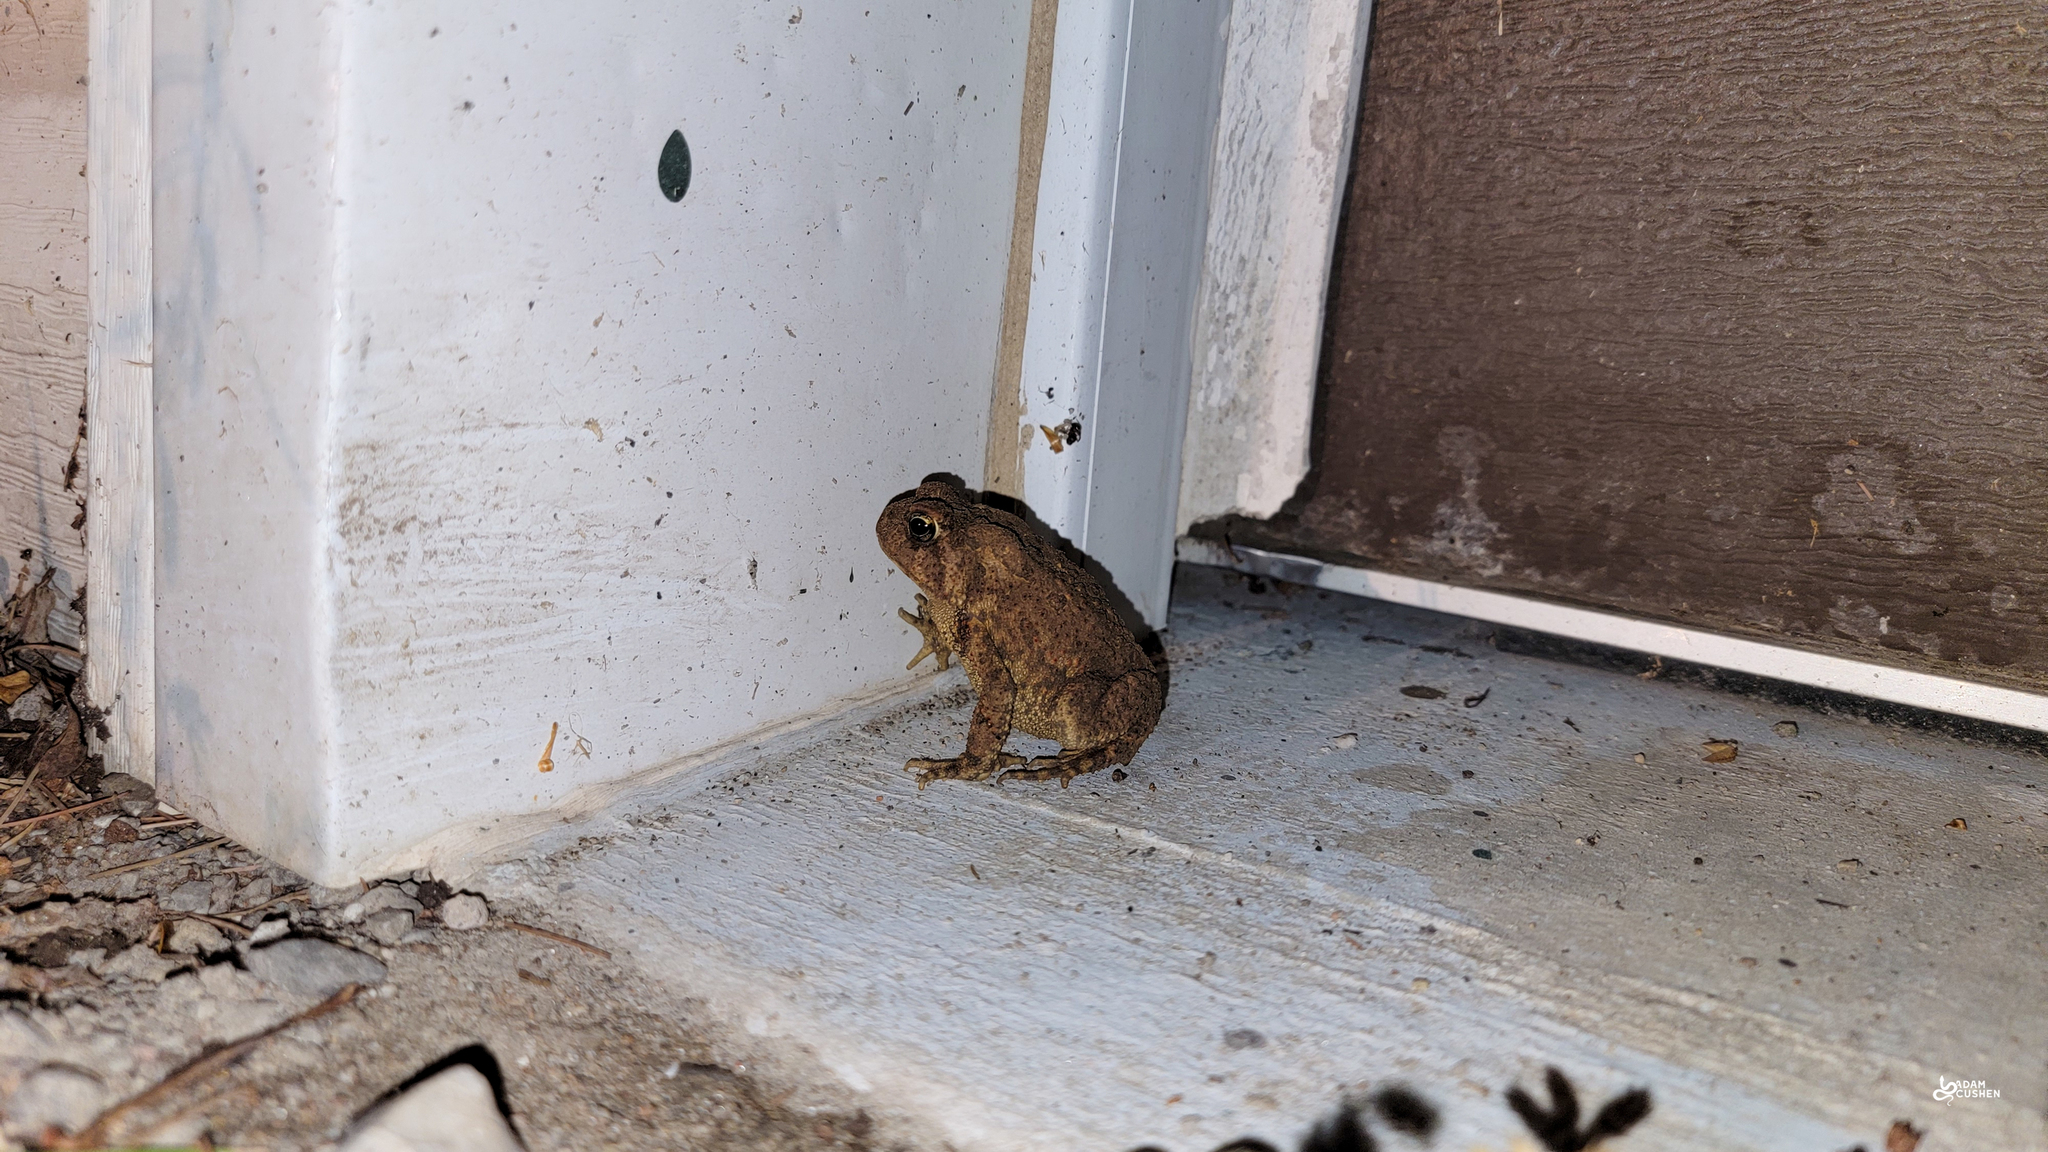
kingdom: Animalia
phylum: Chordata
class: Amphibia
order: Anura
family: Bufonidae
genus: Anaxyrus
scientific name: Anaxyrus americanus
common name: American toad
